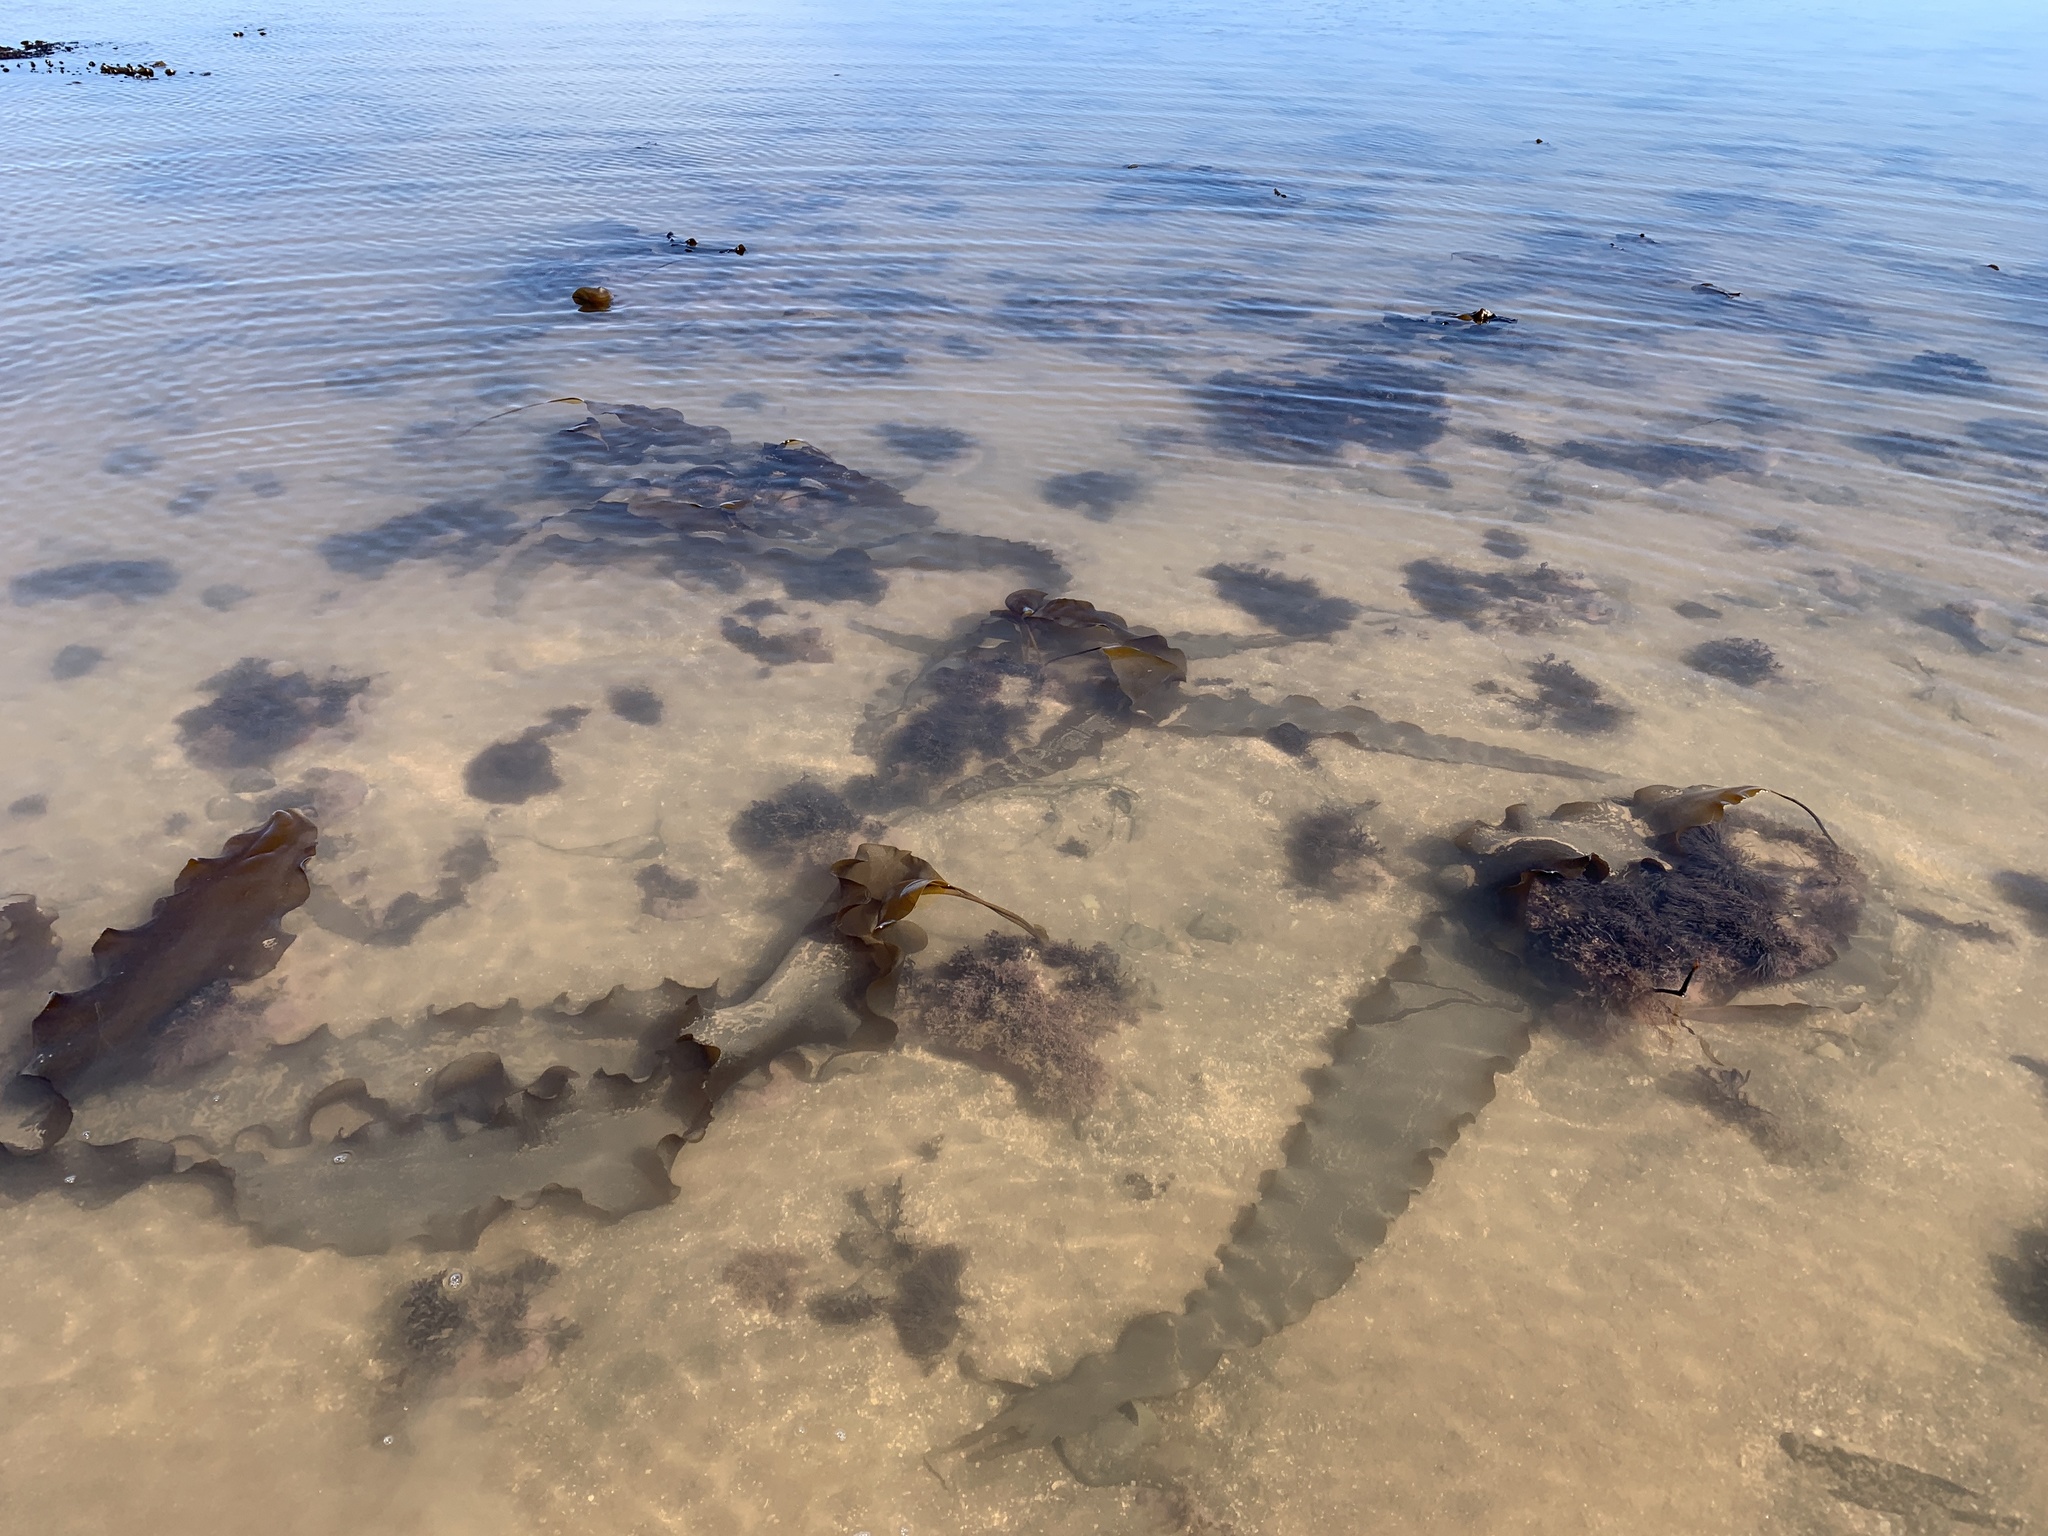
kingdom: Chromista
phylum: Ochrophyta
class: Phaeophyceae
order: Laminariales
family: Laminariaceae
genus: Saccharina
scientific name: Saccharina latissima
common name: Poor man's weather glass
